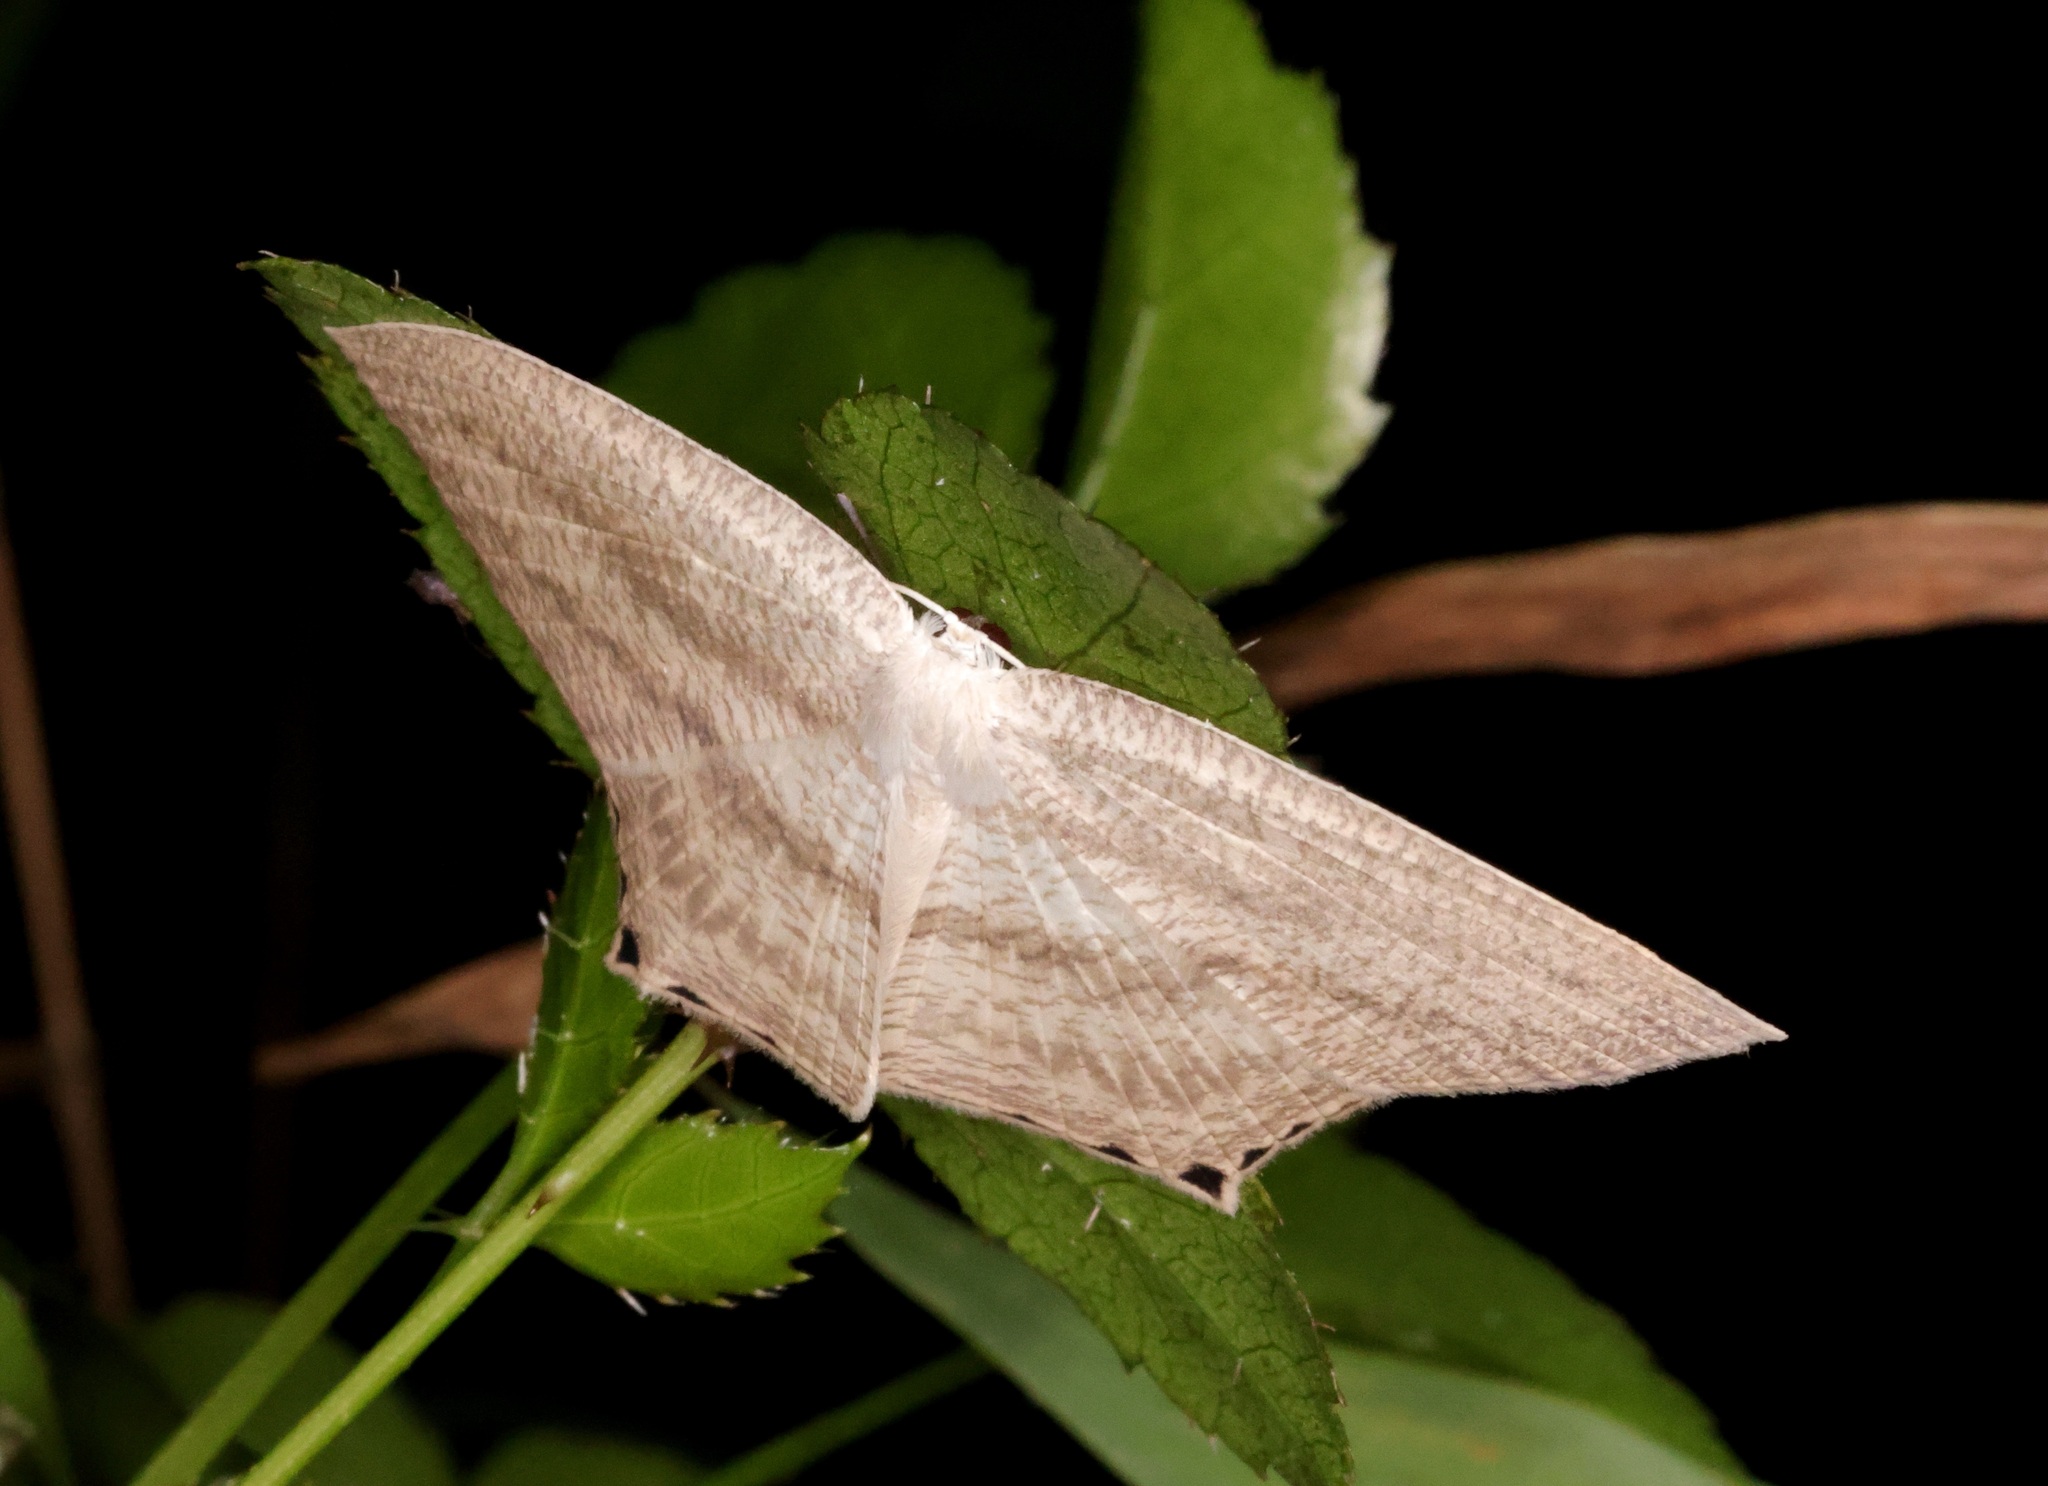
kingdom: Animalia
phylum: Arthropoda
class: Insecta
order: Lepidoptera
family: Uraniidae
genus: Acropteris
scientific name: Acropteris ciniferaria
